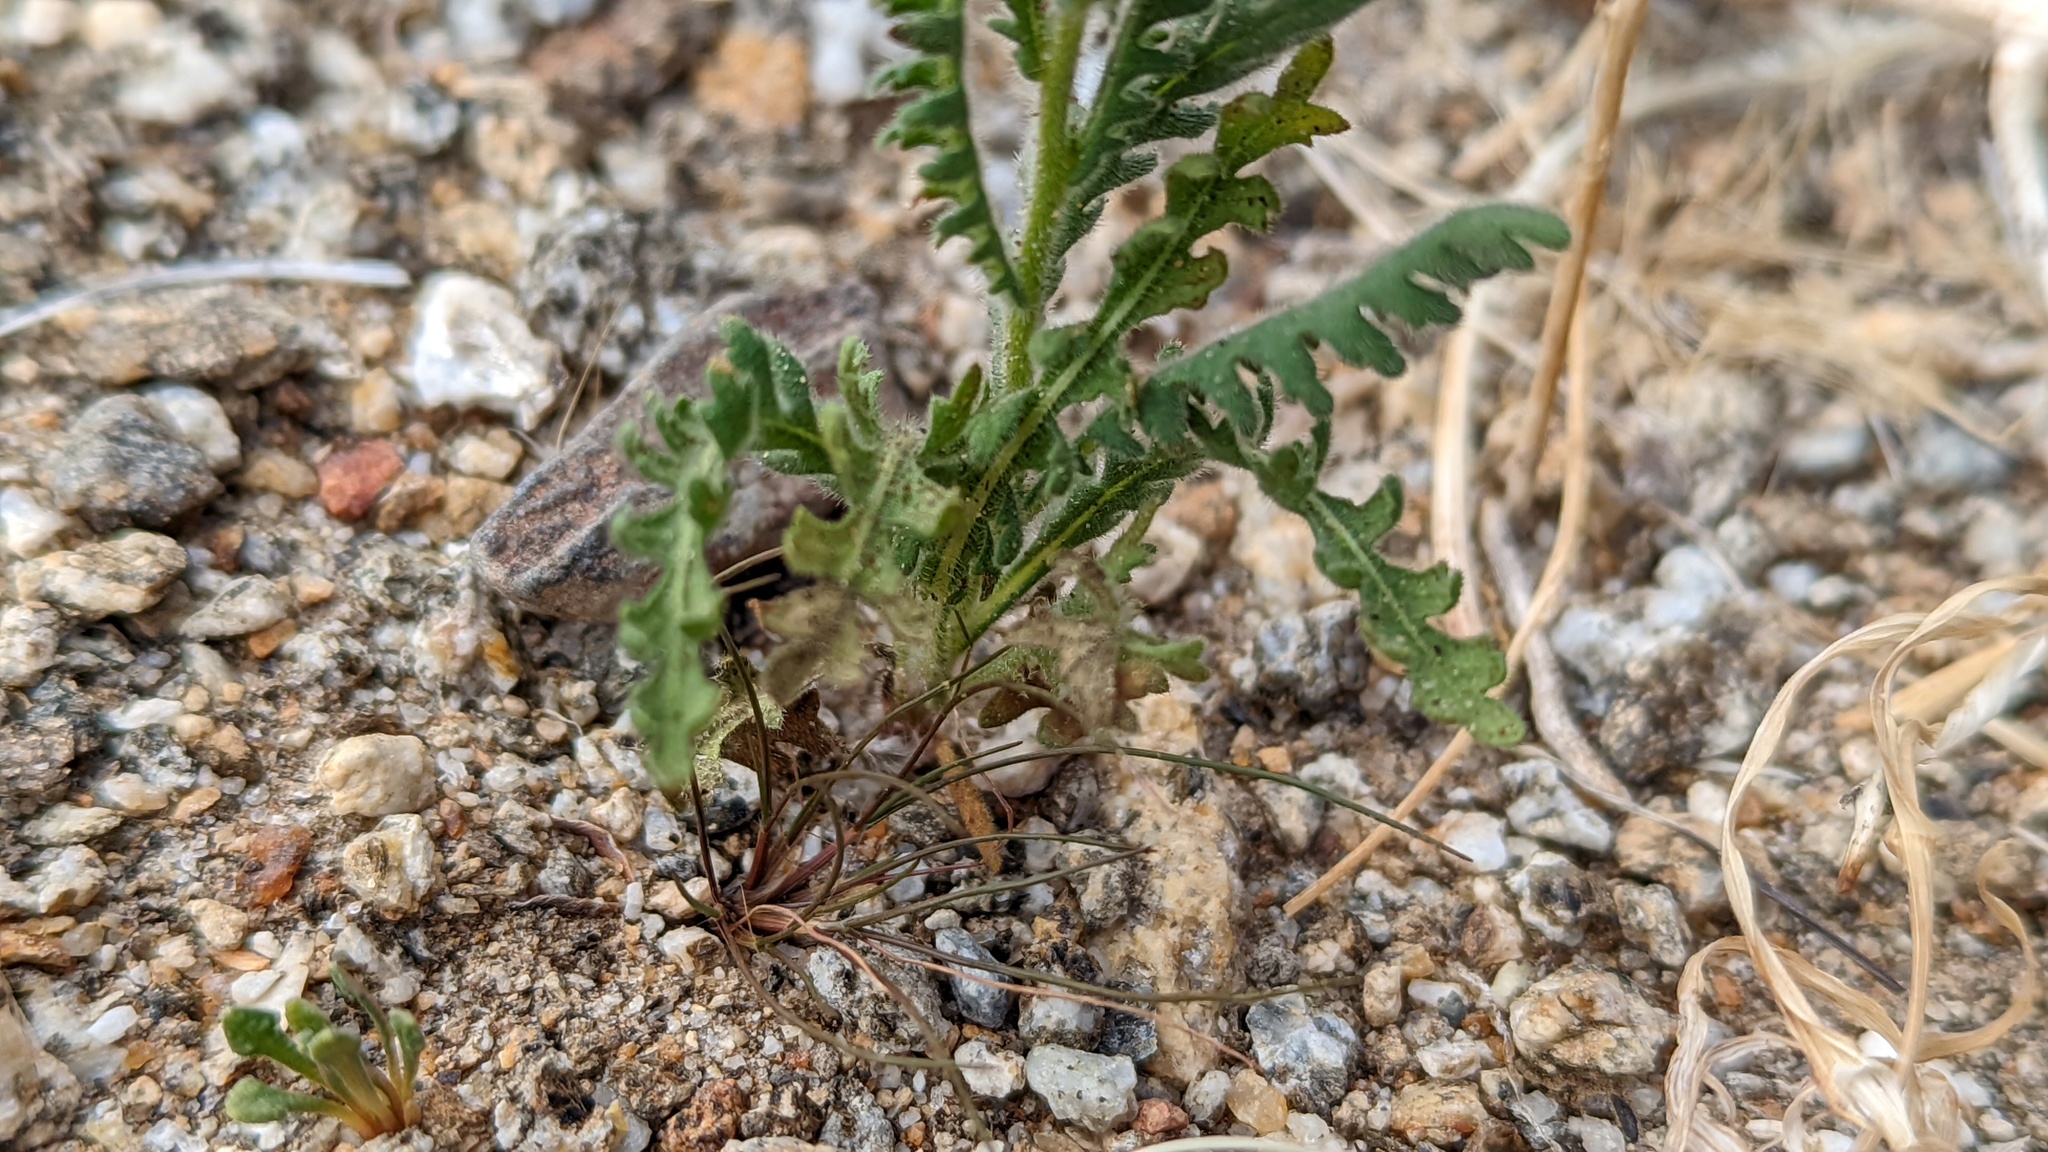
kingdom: Plantae
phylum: Tracheophyta
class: Magnoliopsida
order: Boraginales
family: Hydrophyllaceae
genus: Emmenanthe
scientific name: Emmenanthe penduliflora
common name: Whispering-bells
